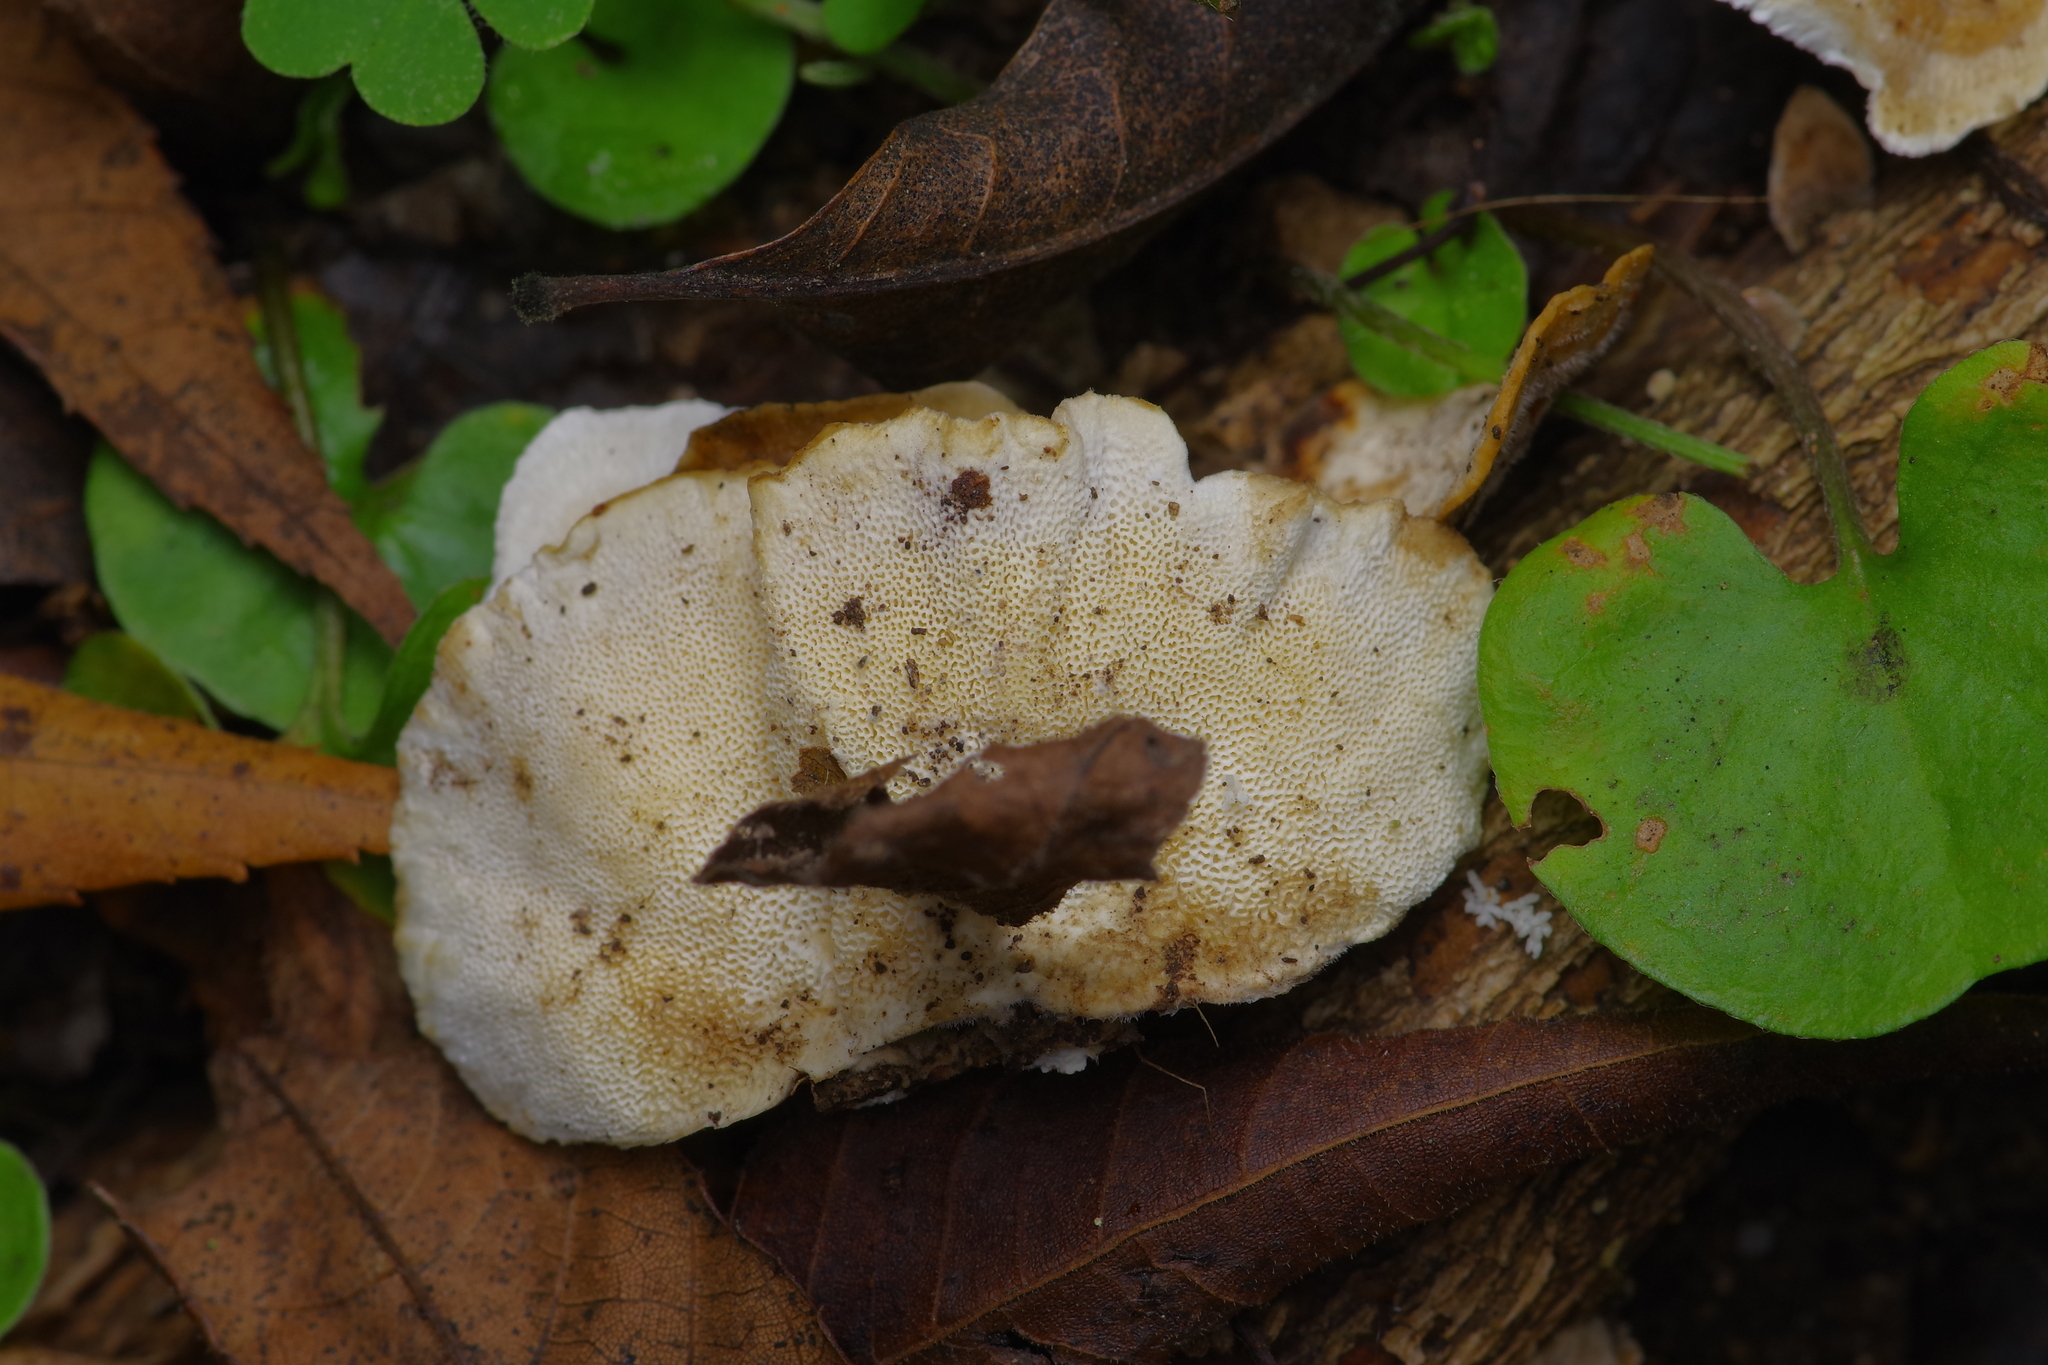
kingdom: Fungi
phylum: Basidiomycota
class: Agaricomycetes
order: Polyporales
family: Polyporaceae
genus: Trametes
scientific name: Trametes versicolor
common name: Turkeytail
